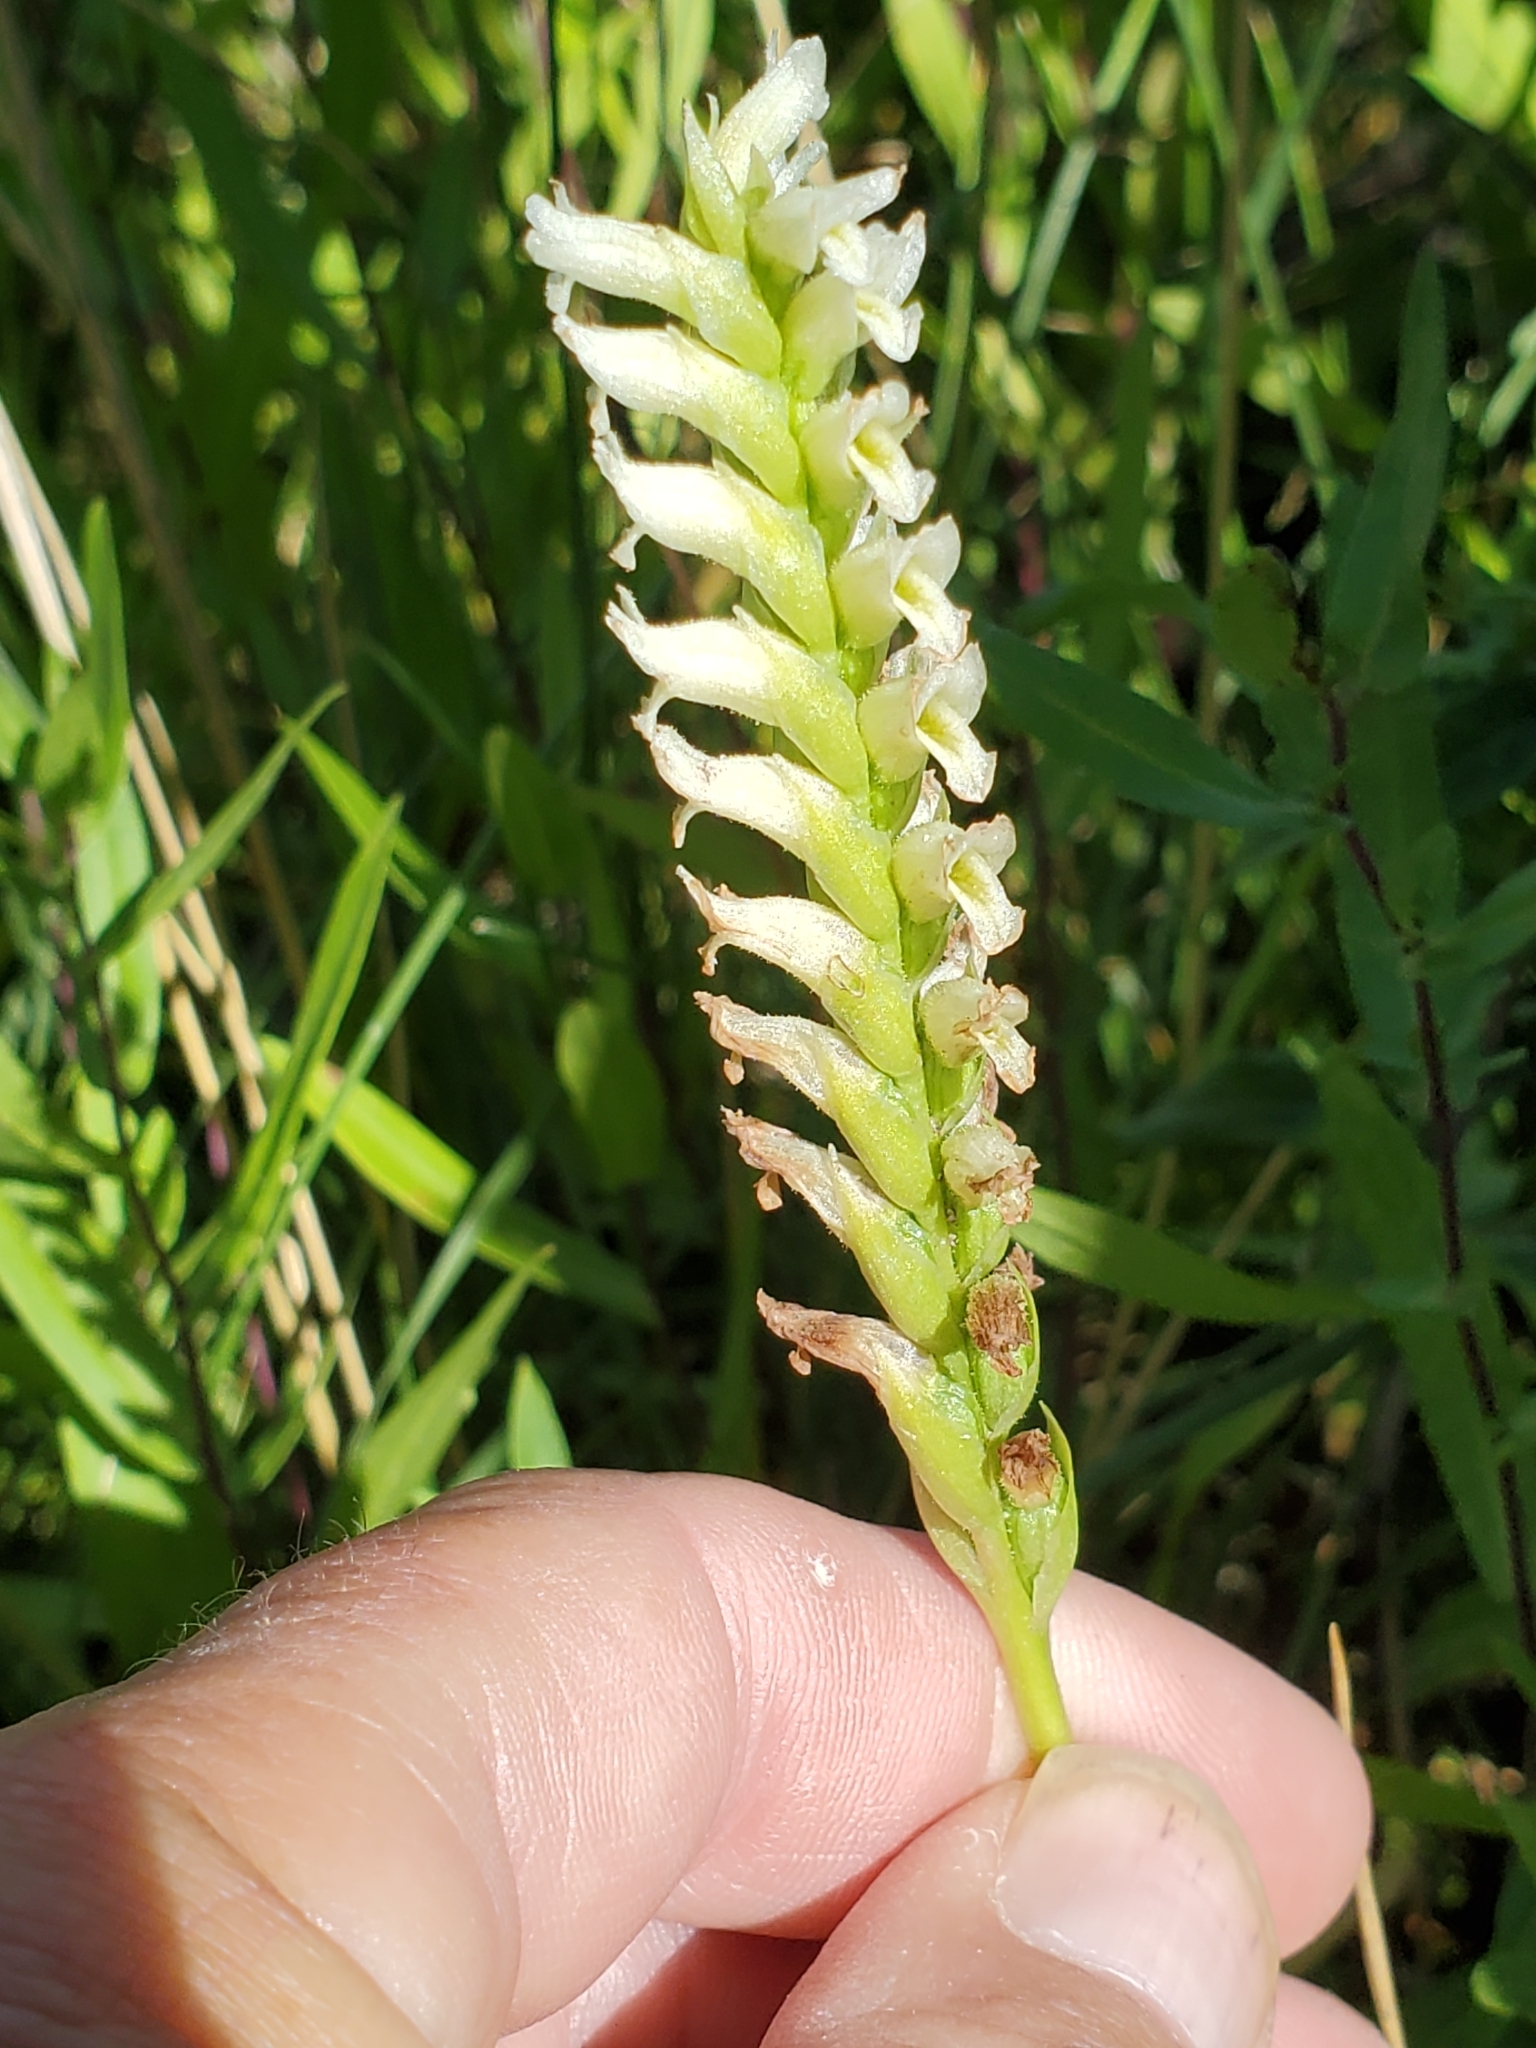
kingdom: Plantae
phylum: Tracheophyta
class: Liliopsida
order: Asparagales
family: Orchidaceae
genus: Spiranthes
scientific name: Spiranthes romanzoffiana
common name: Irish lady's-tresses
